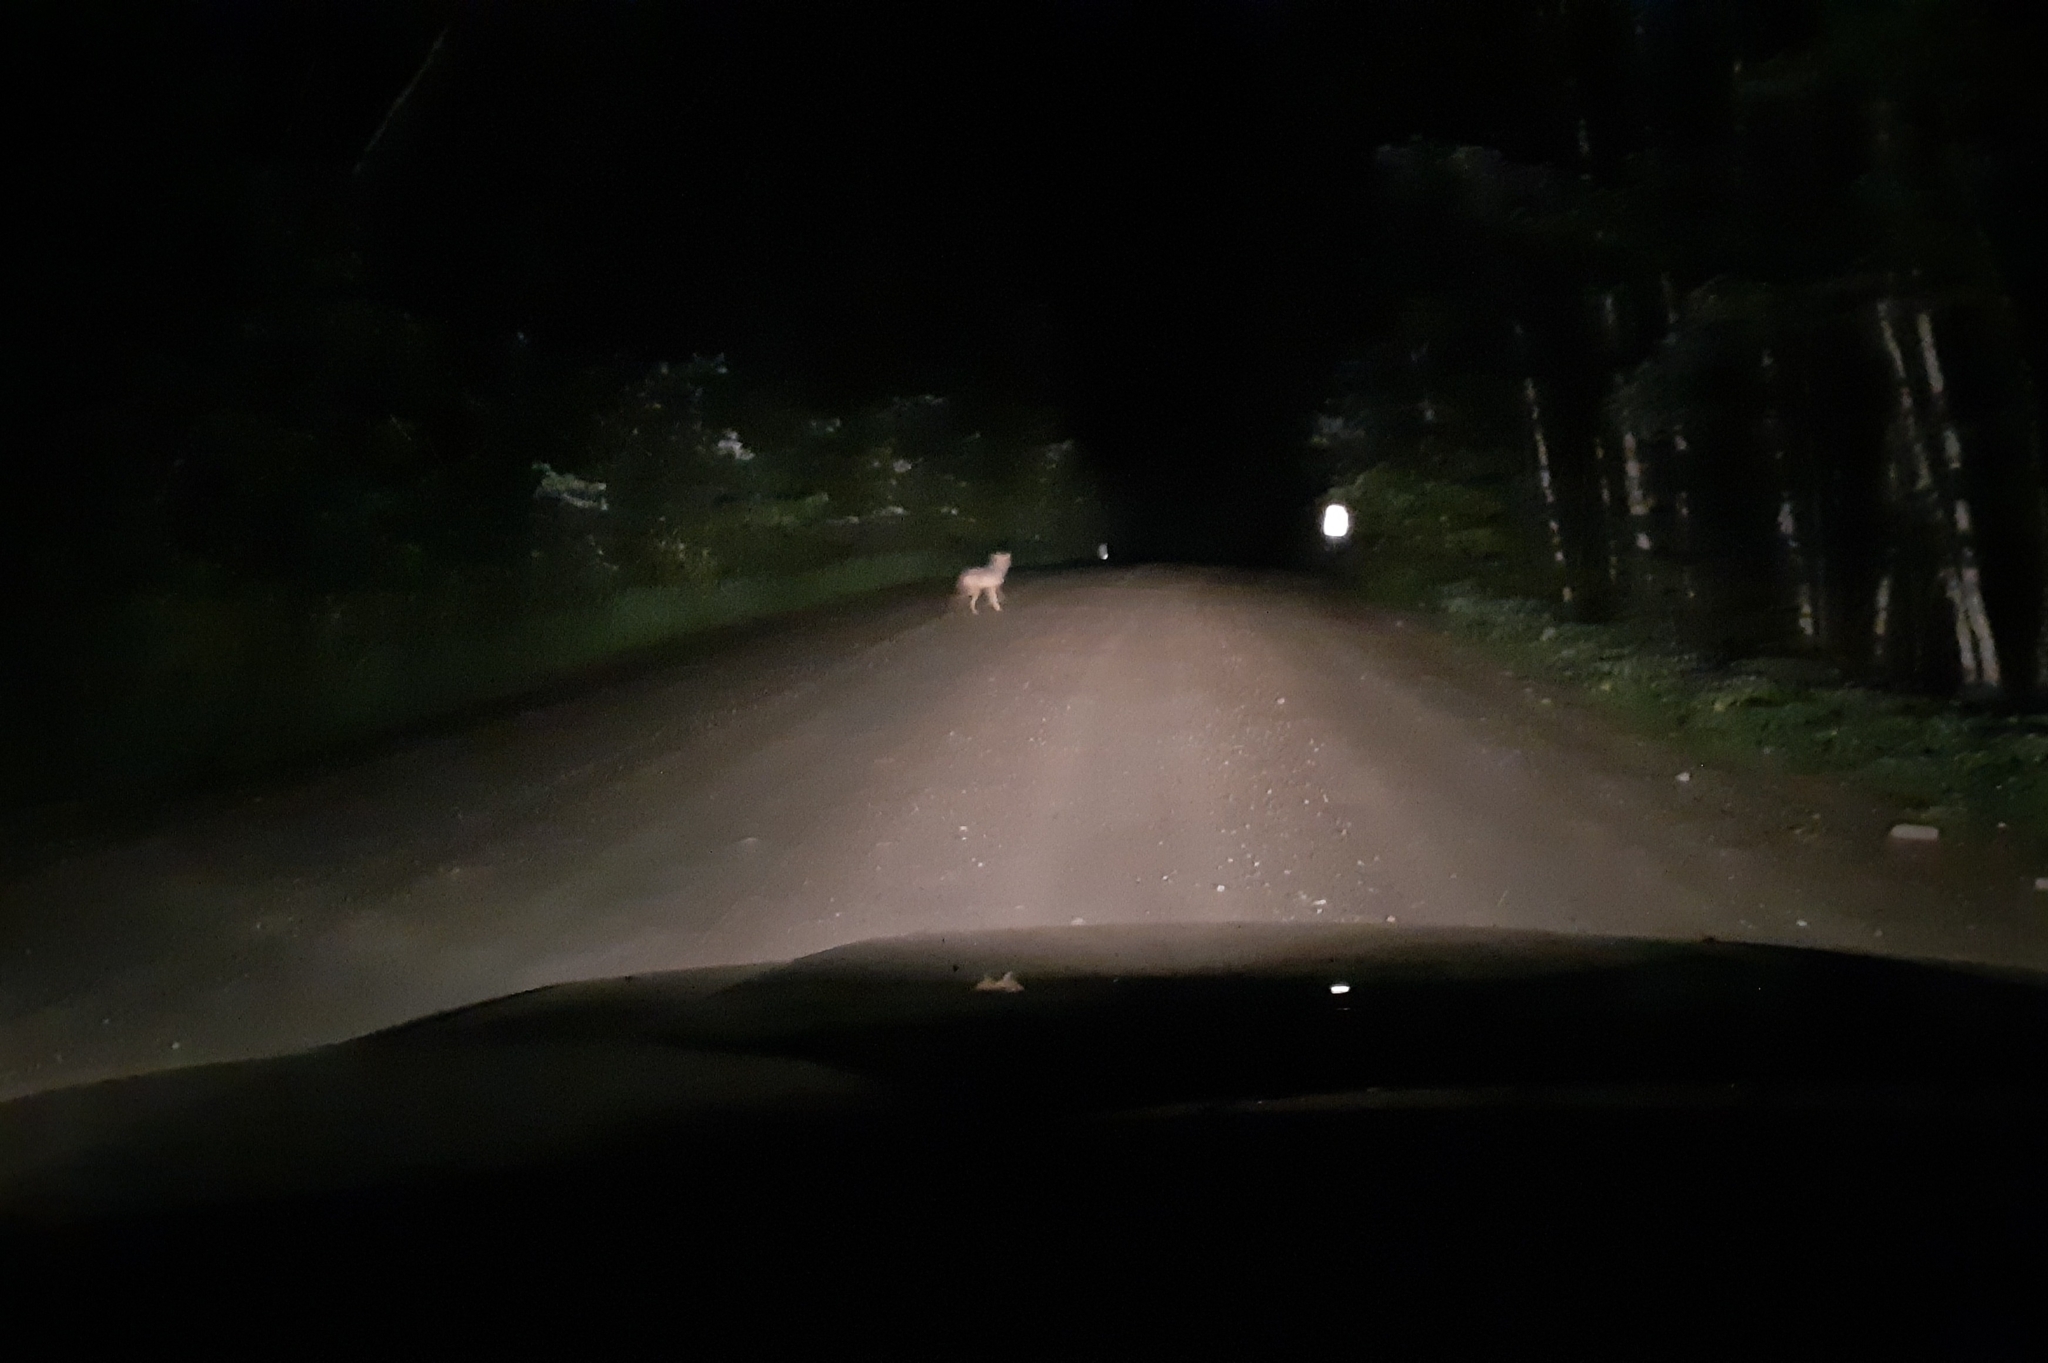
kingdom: Animalia
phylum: Chordata
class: Mammalia
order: Carnivora
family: Canidae
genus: Canis
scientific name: Canis lycaon
